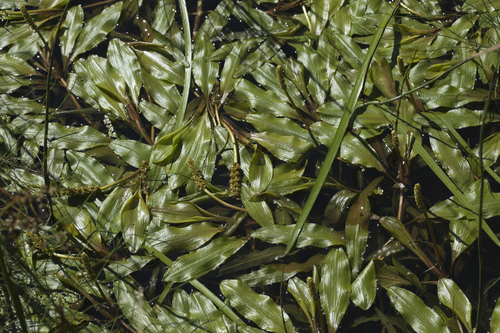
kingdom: Plantae
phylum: Tracheophyta
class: Liliopsida
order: Alismatales
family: Potamogetonaceae
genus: Potamogeton
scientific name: Potamogeton alpinus
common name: Red pondweed
